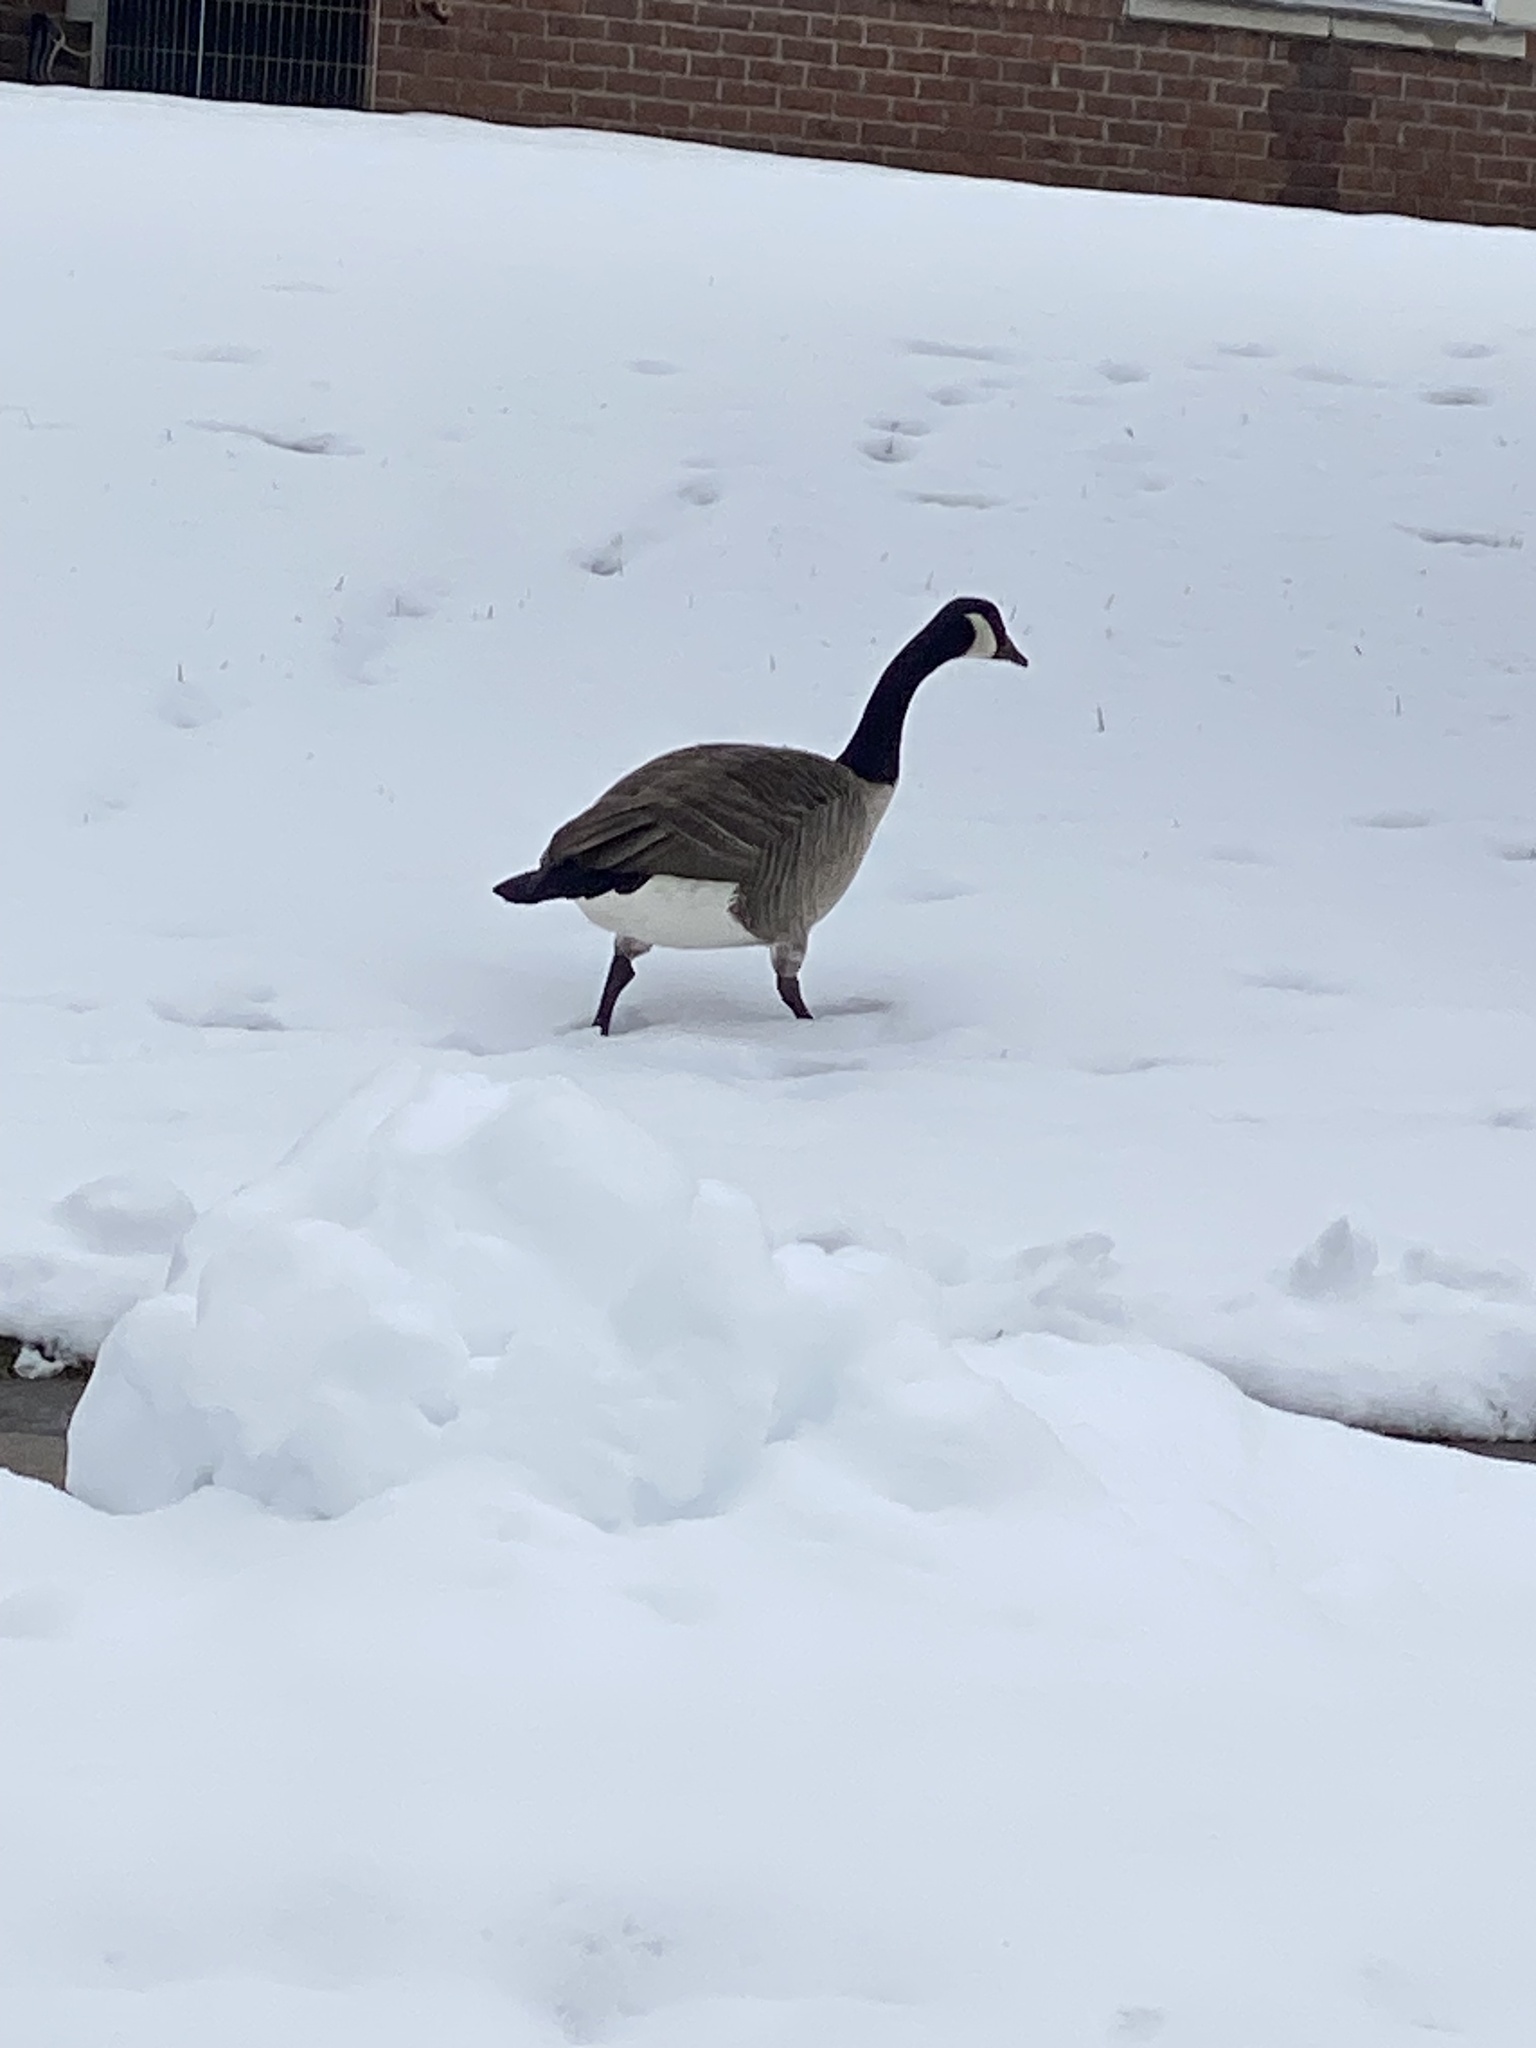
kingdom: Animalia
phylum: Chordata
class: Aves
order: Anseriformes
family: Anatidae
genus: Branta
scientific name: Branta canadensis
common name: Canada goose
